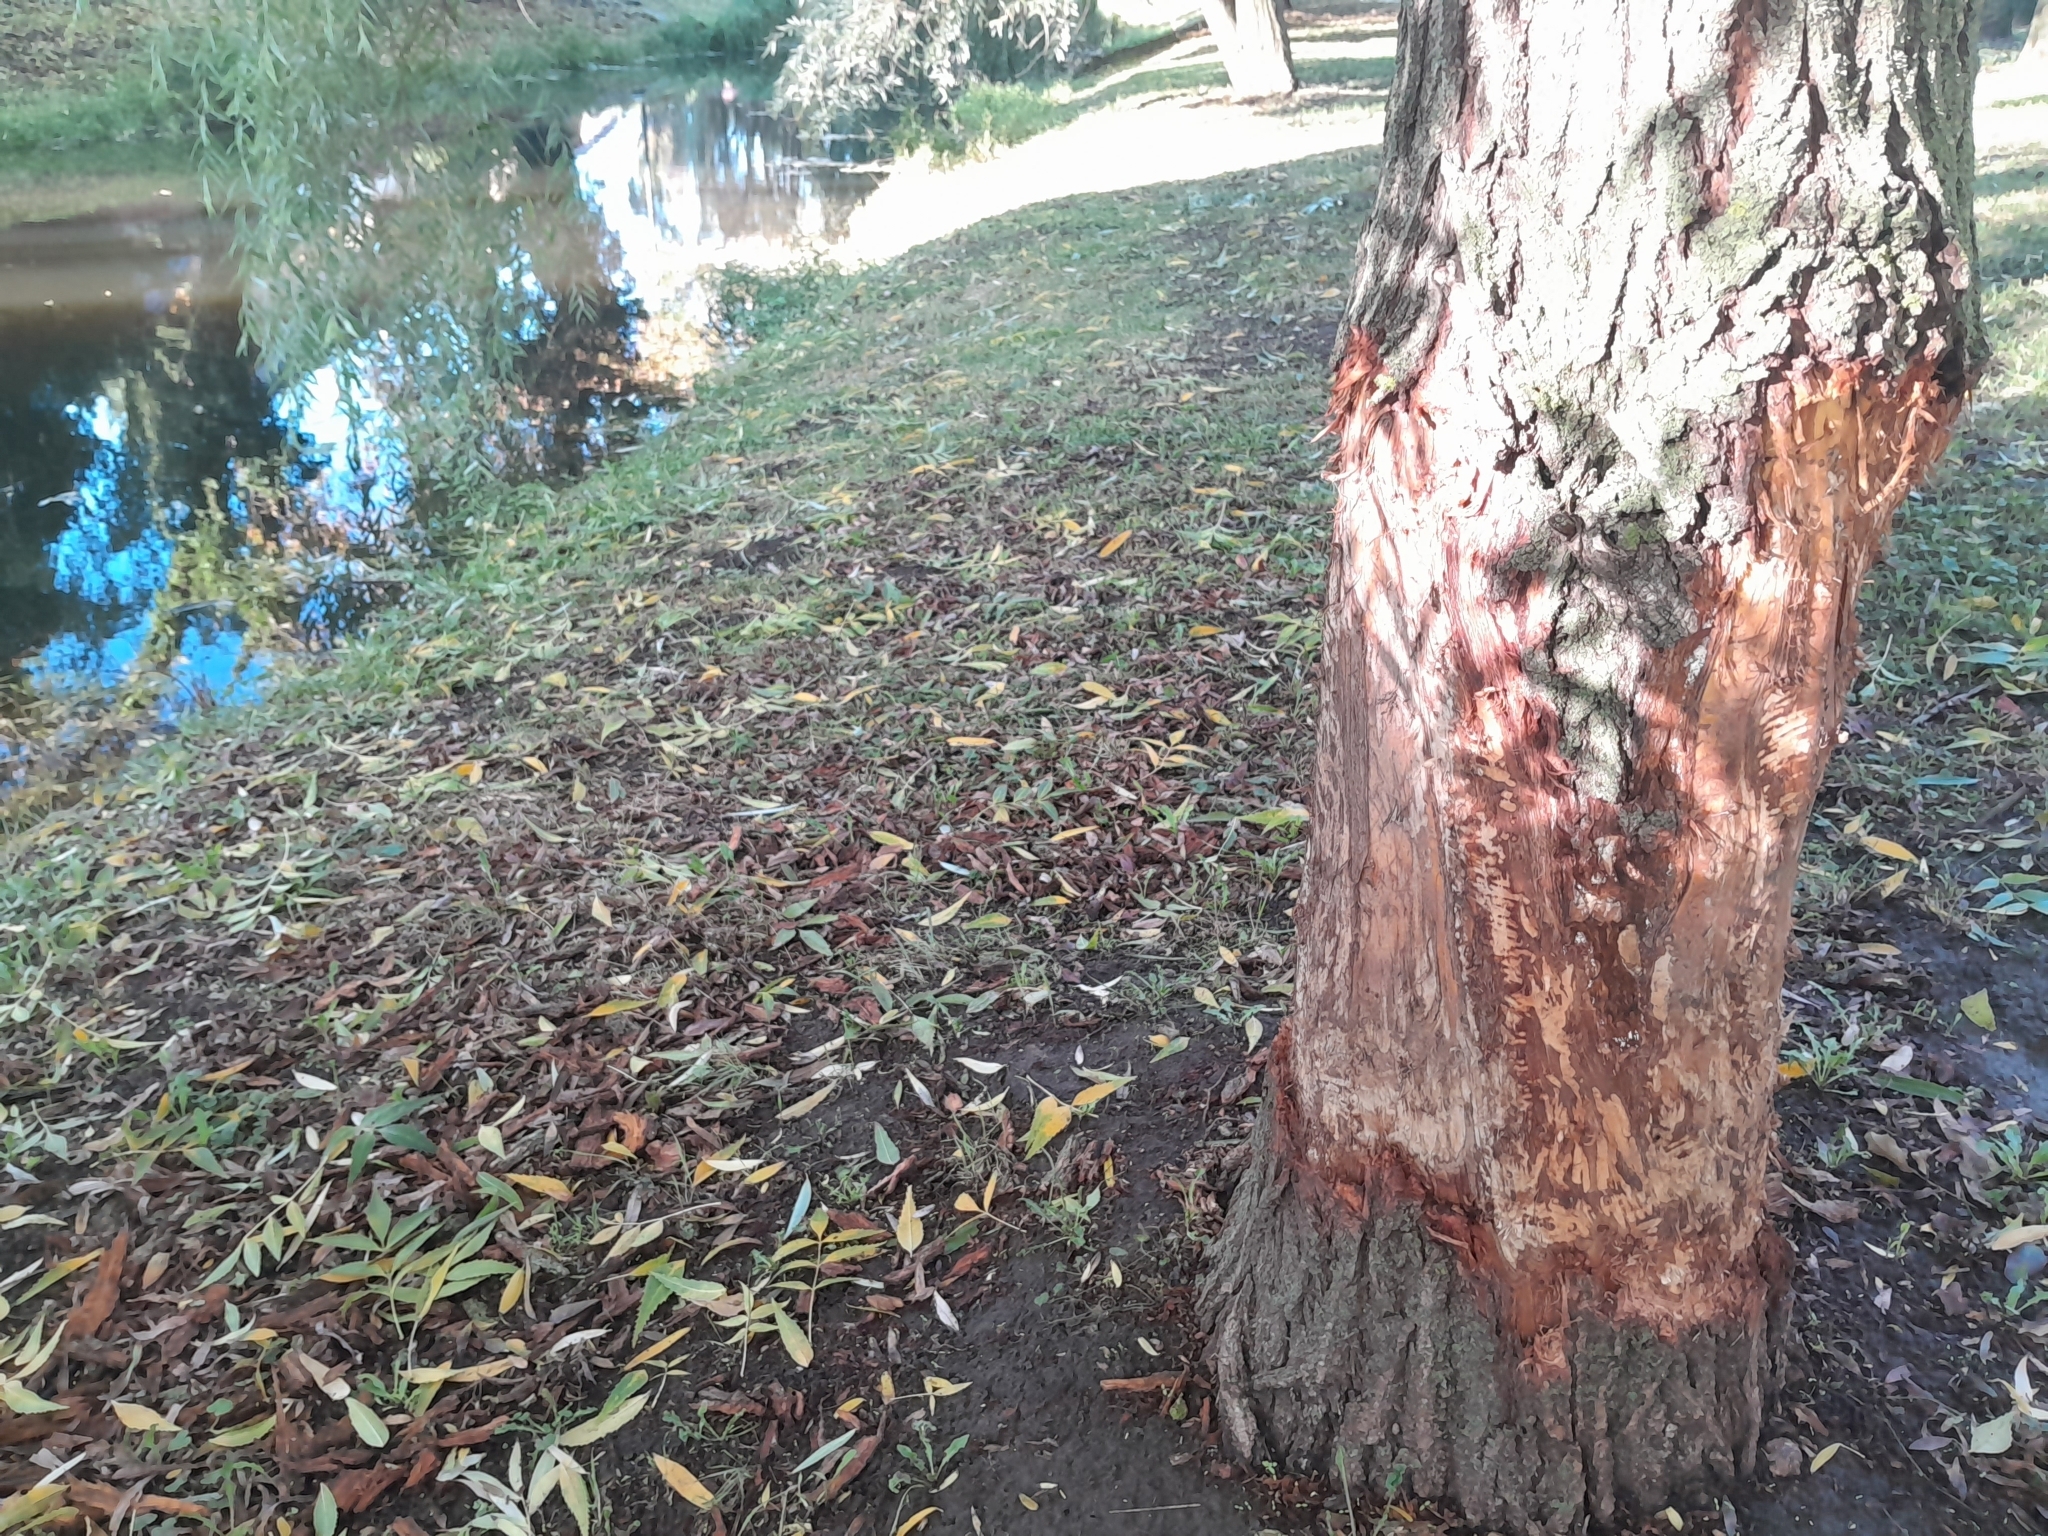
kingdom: Animalia
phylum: Chordata
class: Mammalia
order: Rodentia
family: Castoridae
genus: Castor
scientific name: Castor fiber
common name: Eurasian beaver
